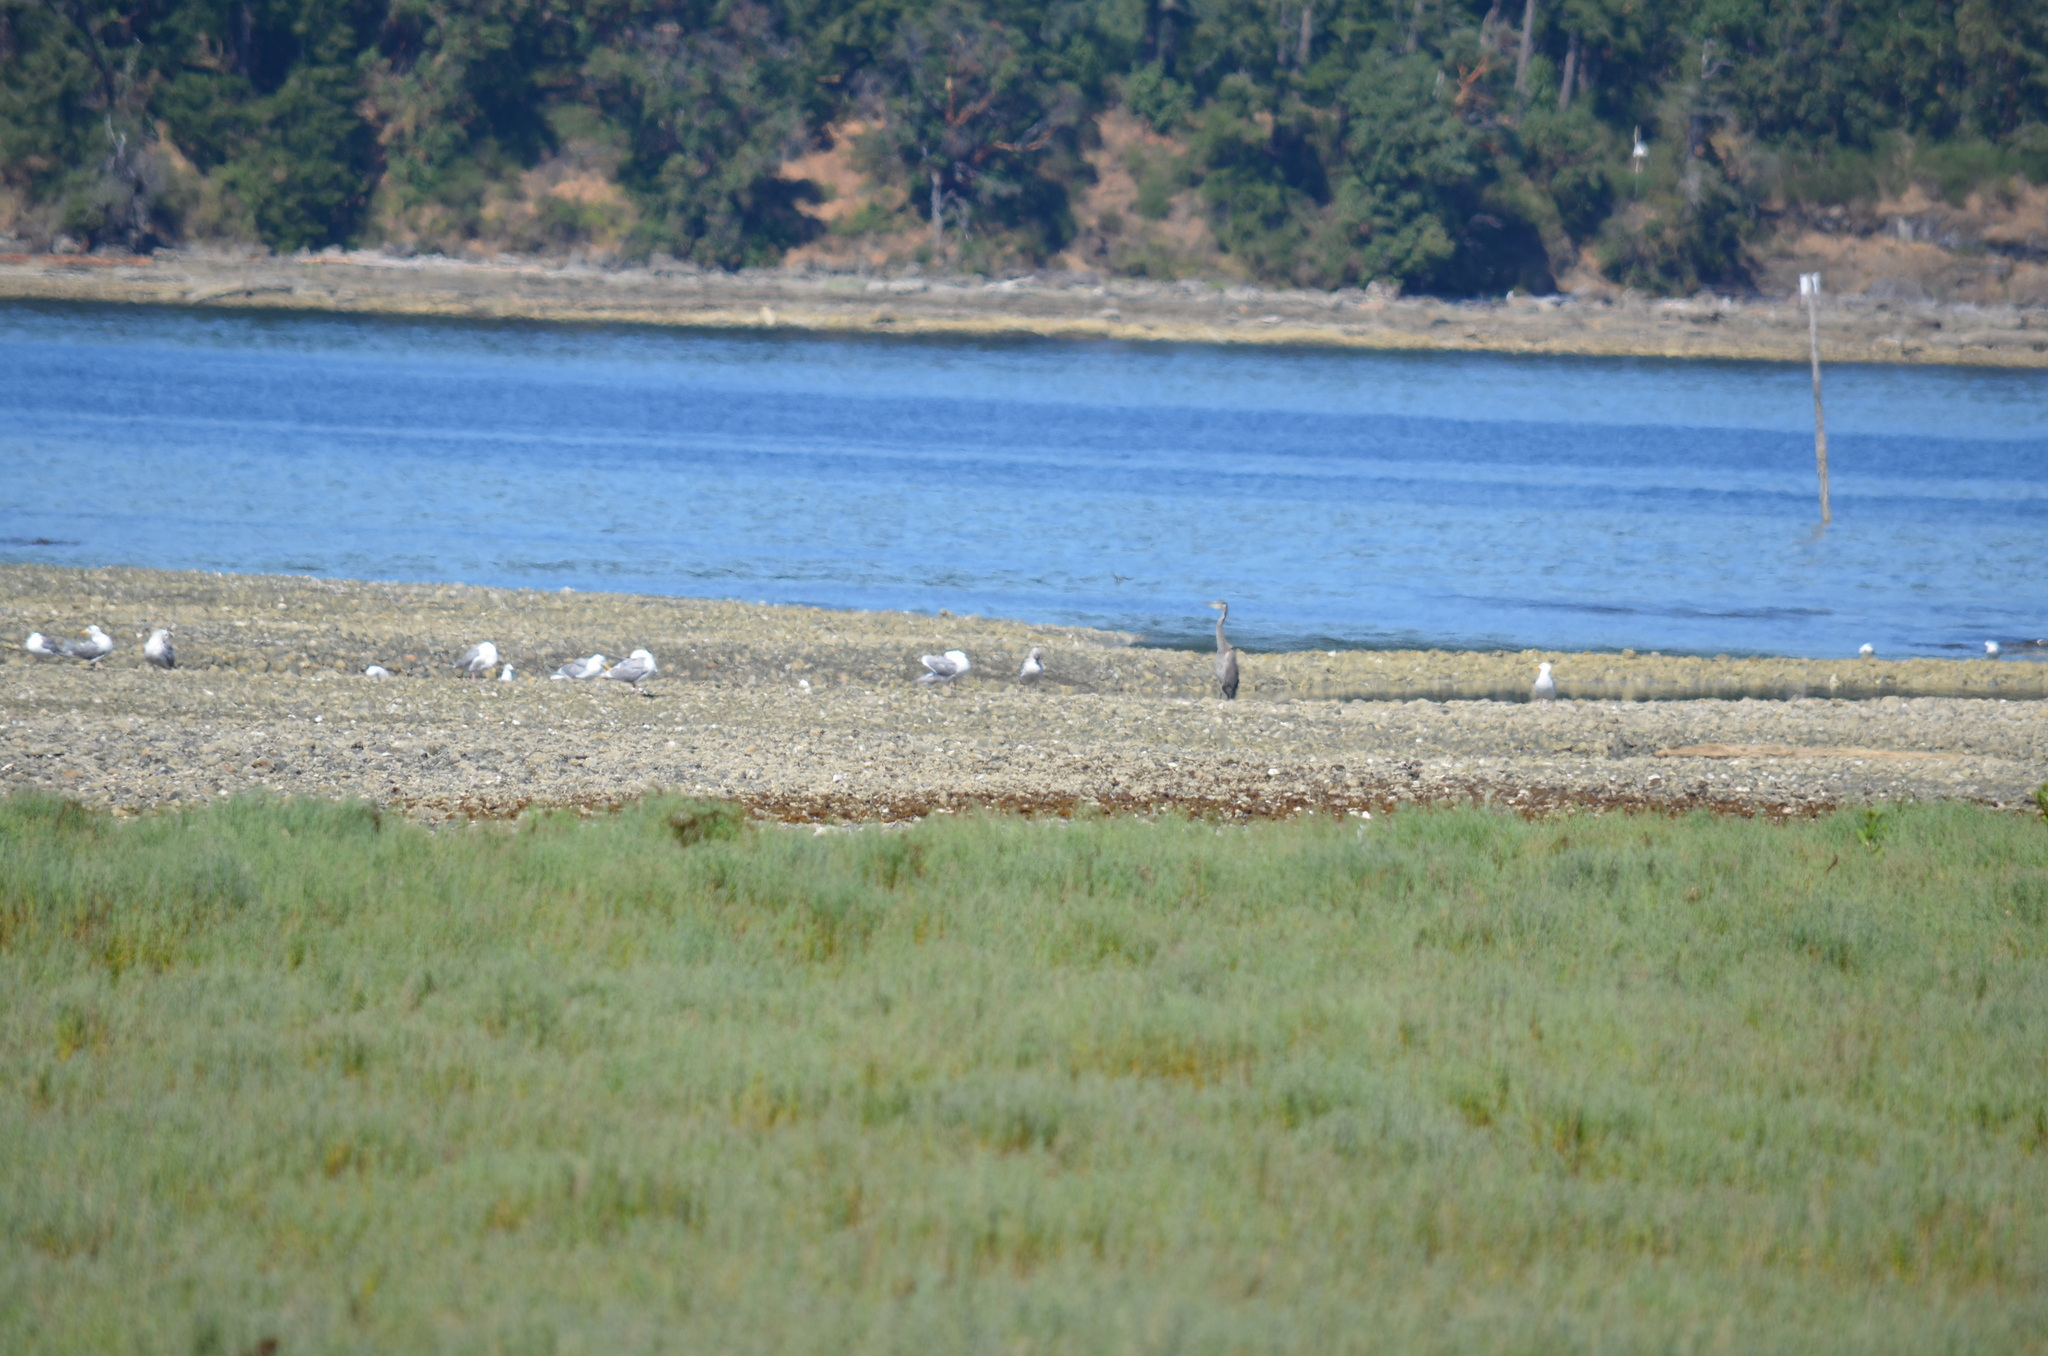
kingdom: Animalia
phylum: Chordata
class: Aves
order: Pelecaniformes
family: Ardeidae
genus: Ardea
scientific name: Ardea herodias
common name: Great blue heron
